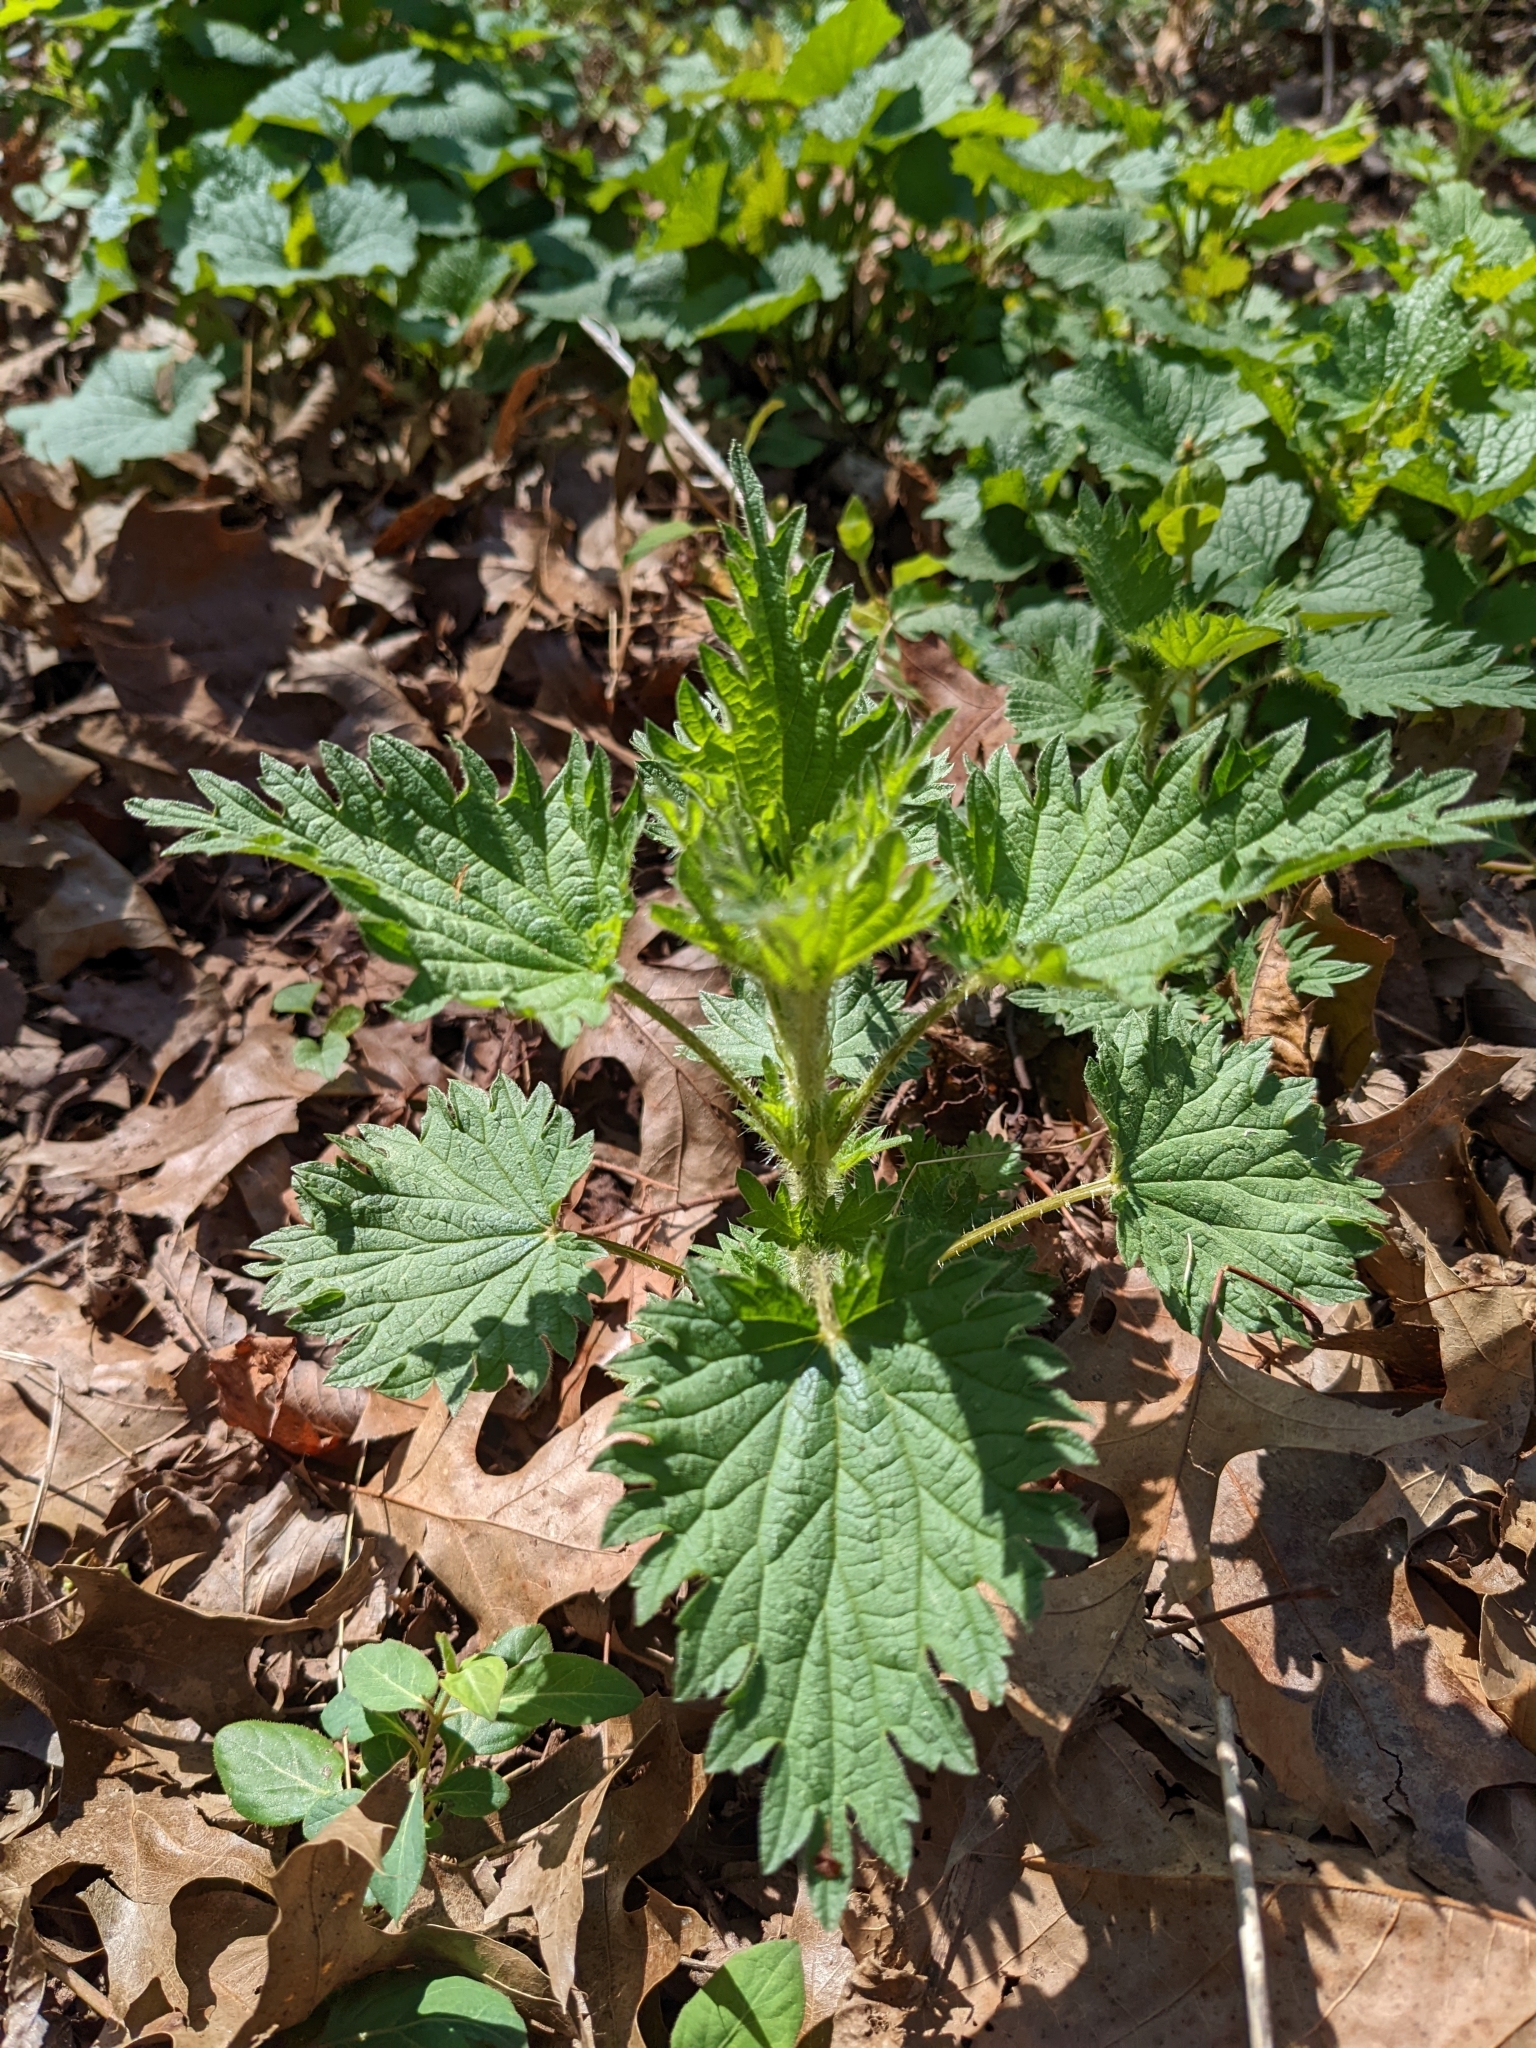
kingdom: Plantae
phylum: Tracheophyta
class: Magnoliopsida
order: Rosales
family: Urticaceae
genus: Urtica
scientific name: Urtica dioica
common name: Common nettle
